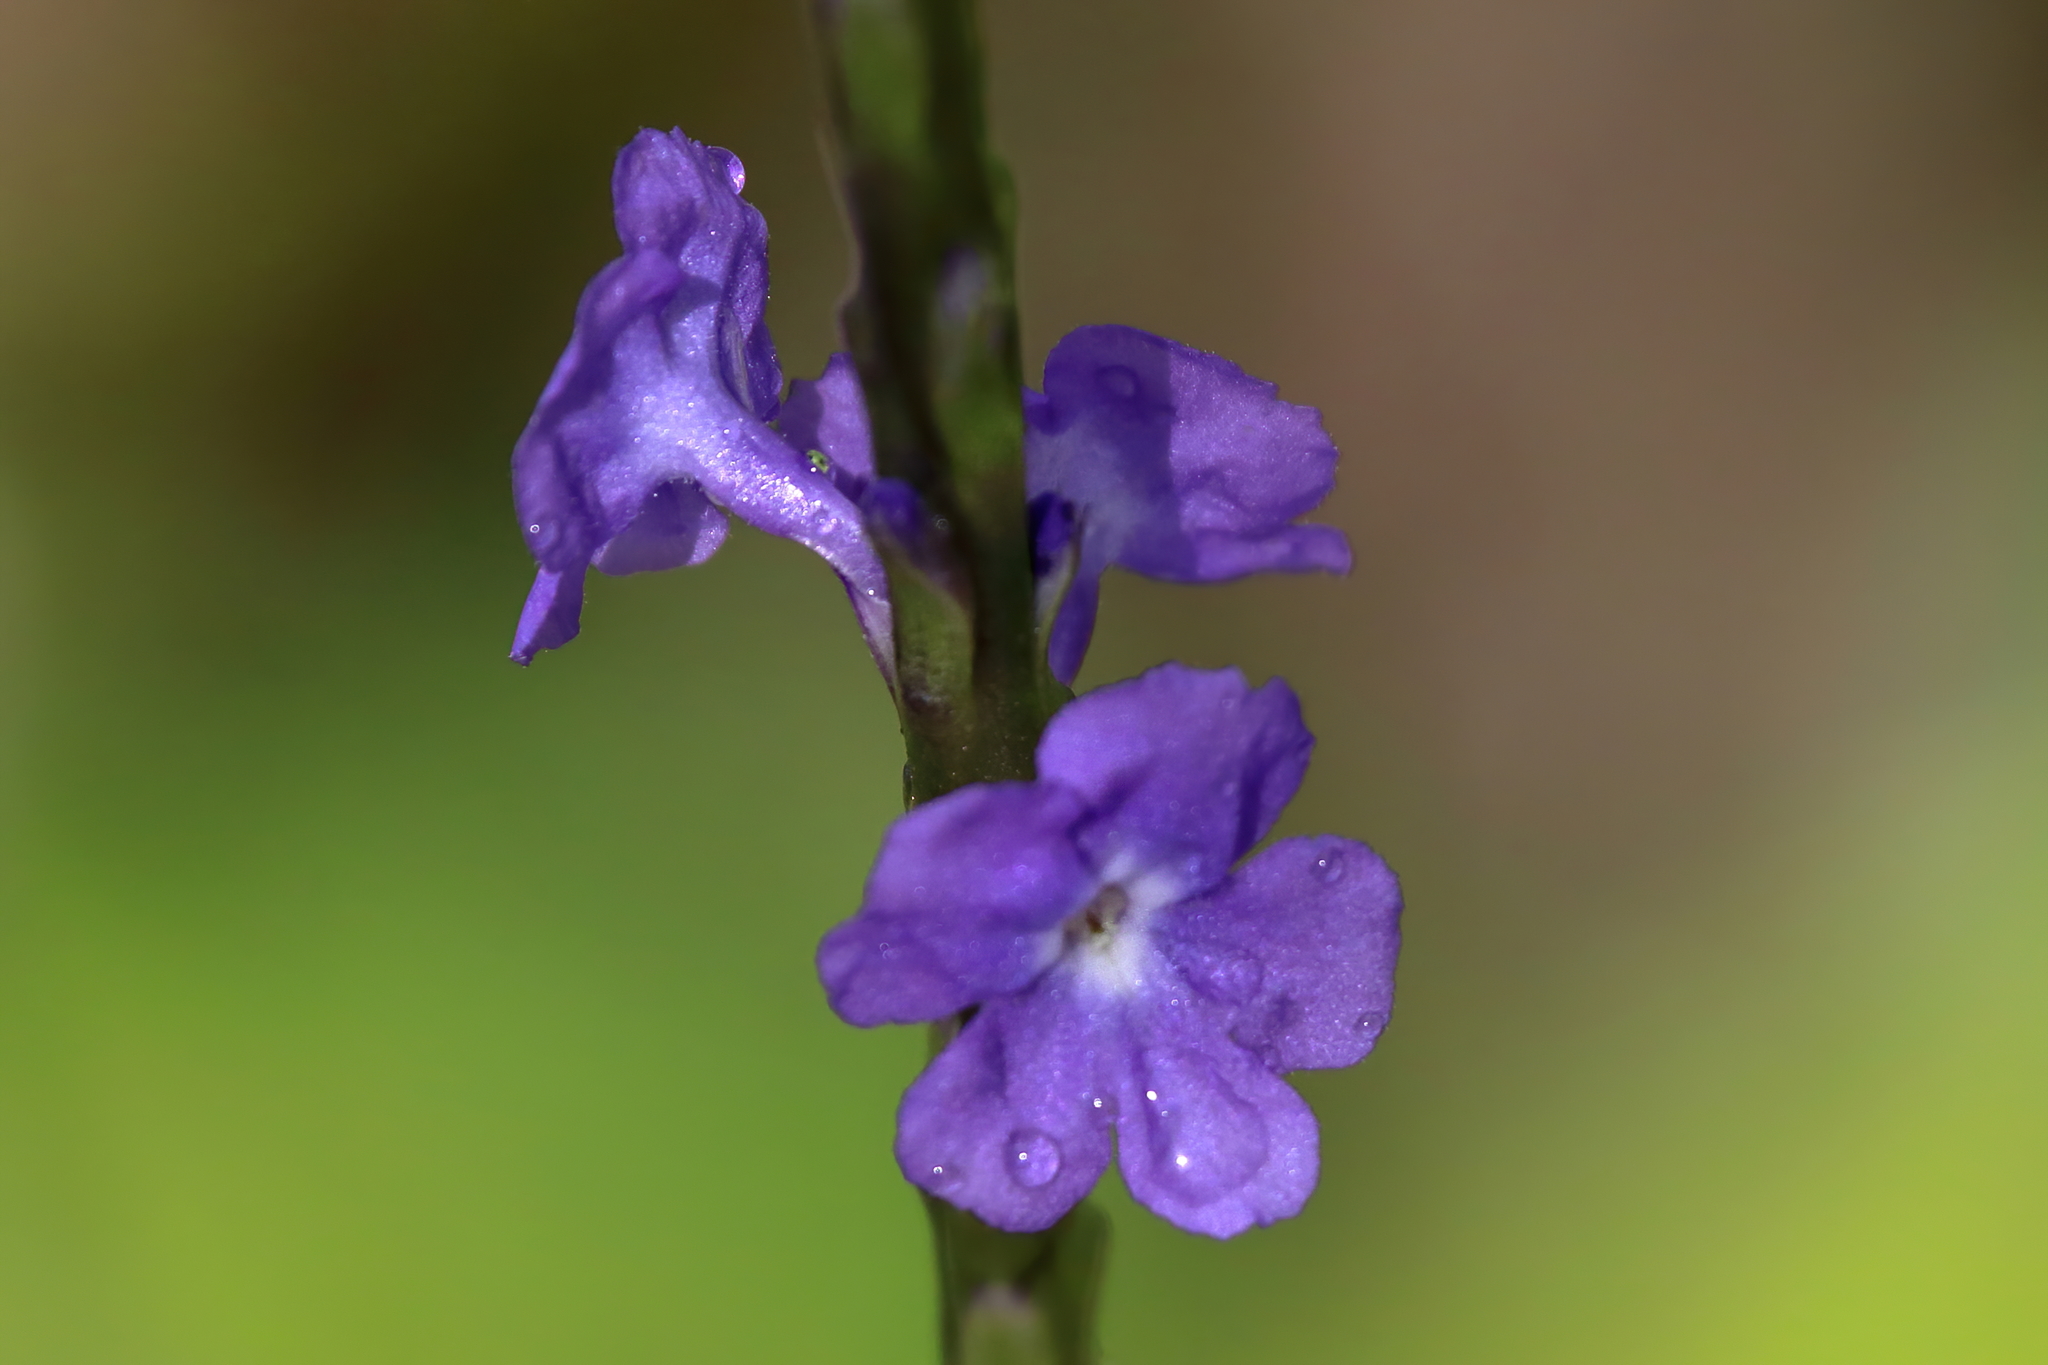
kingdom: Plantae
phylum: Tracheophyta
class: Magnoliopsida
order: Lamiales
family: Verbenaceae
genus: Stachytarpheta
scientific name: Stachytarpheta jamaicensis
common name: Light-blue snakeweed
